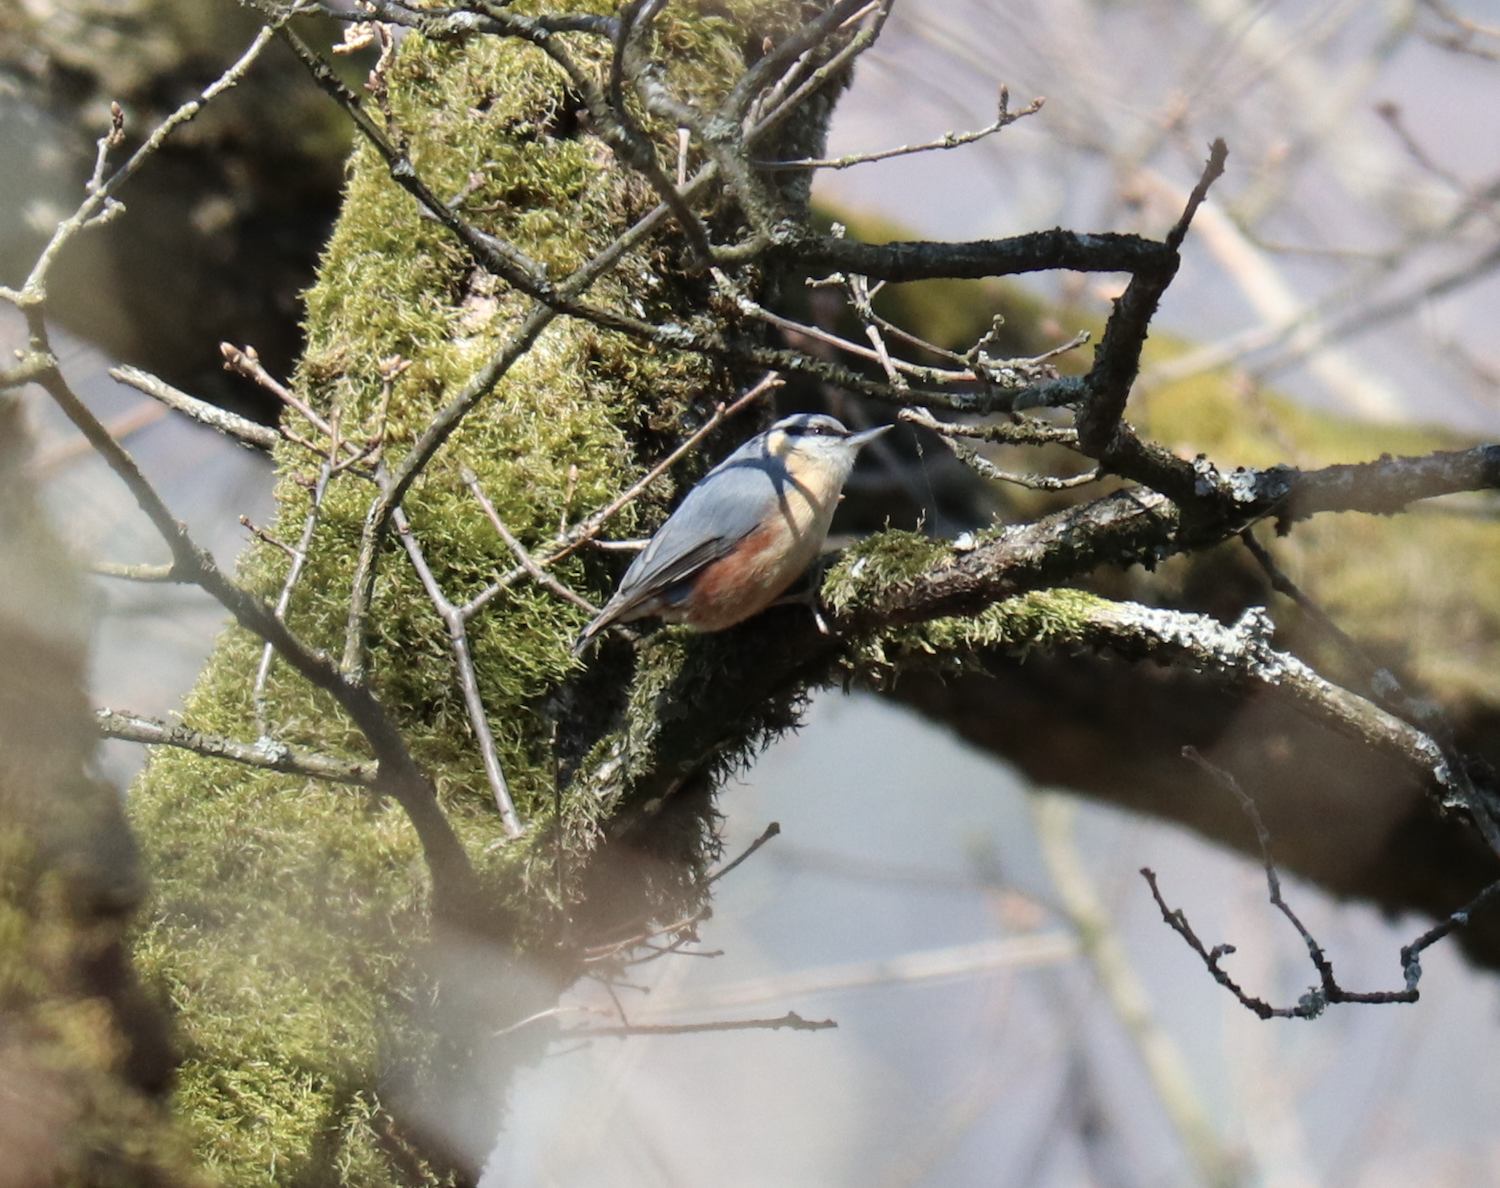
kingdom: Animalia
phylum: Chordata
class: Aves
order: Passeriformes
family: Sittidae
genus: Sitta
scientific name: Sitta europaea
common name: Eurasian nuthatch
